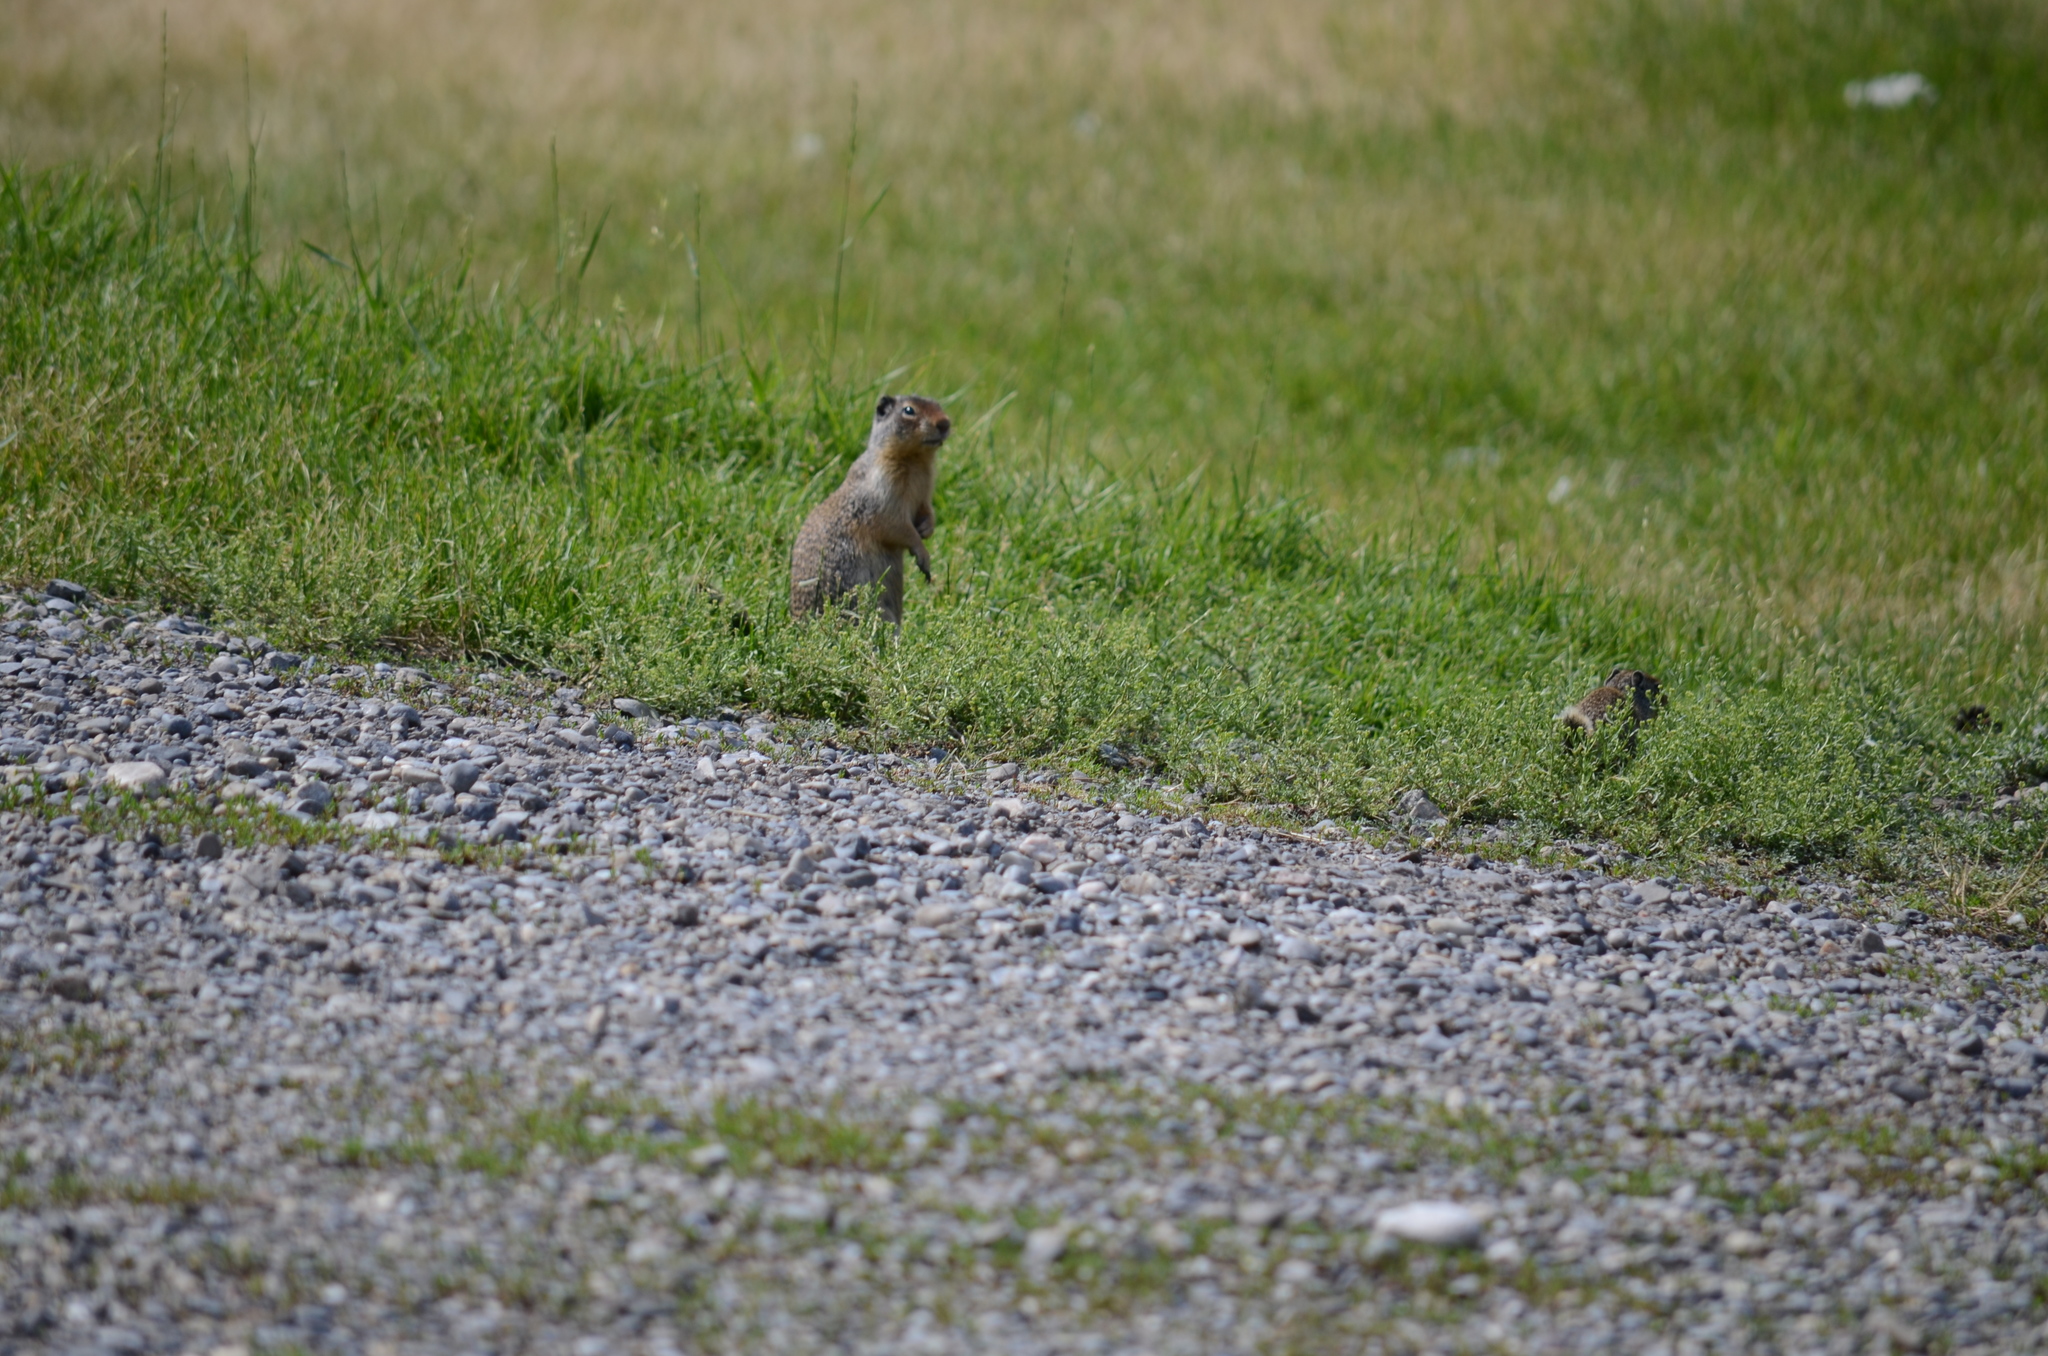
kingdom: Animalia
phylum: Chordata
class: Mammalia
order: Rodentia
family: Sciuridae
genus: Urocitellus
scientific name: Urocitellus columbianus
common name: Columbian ground squirrel
